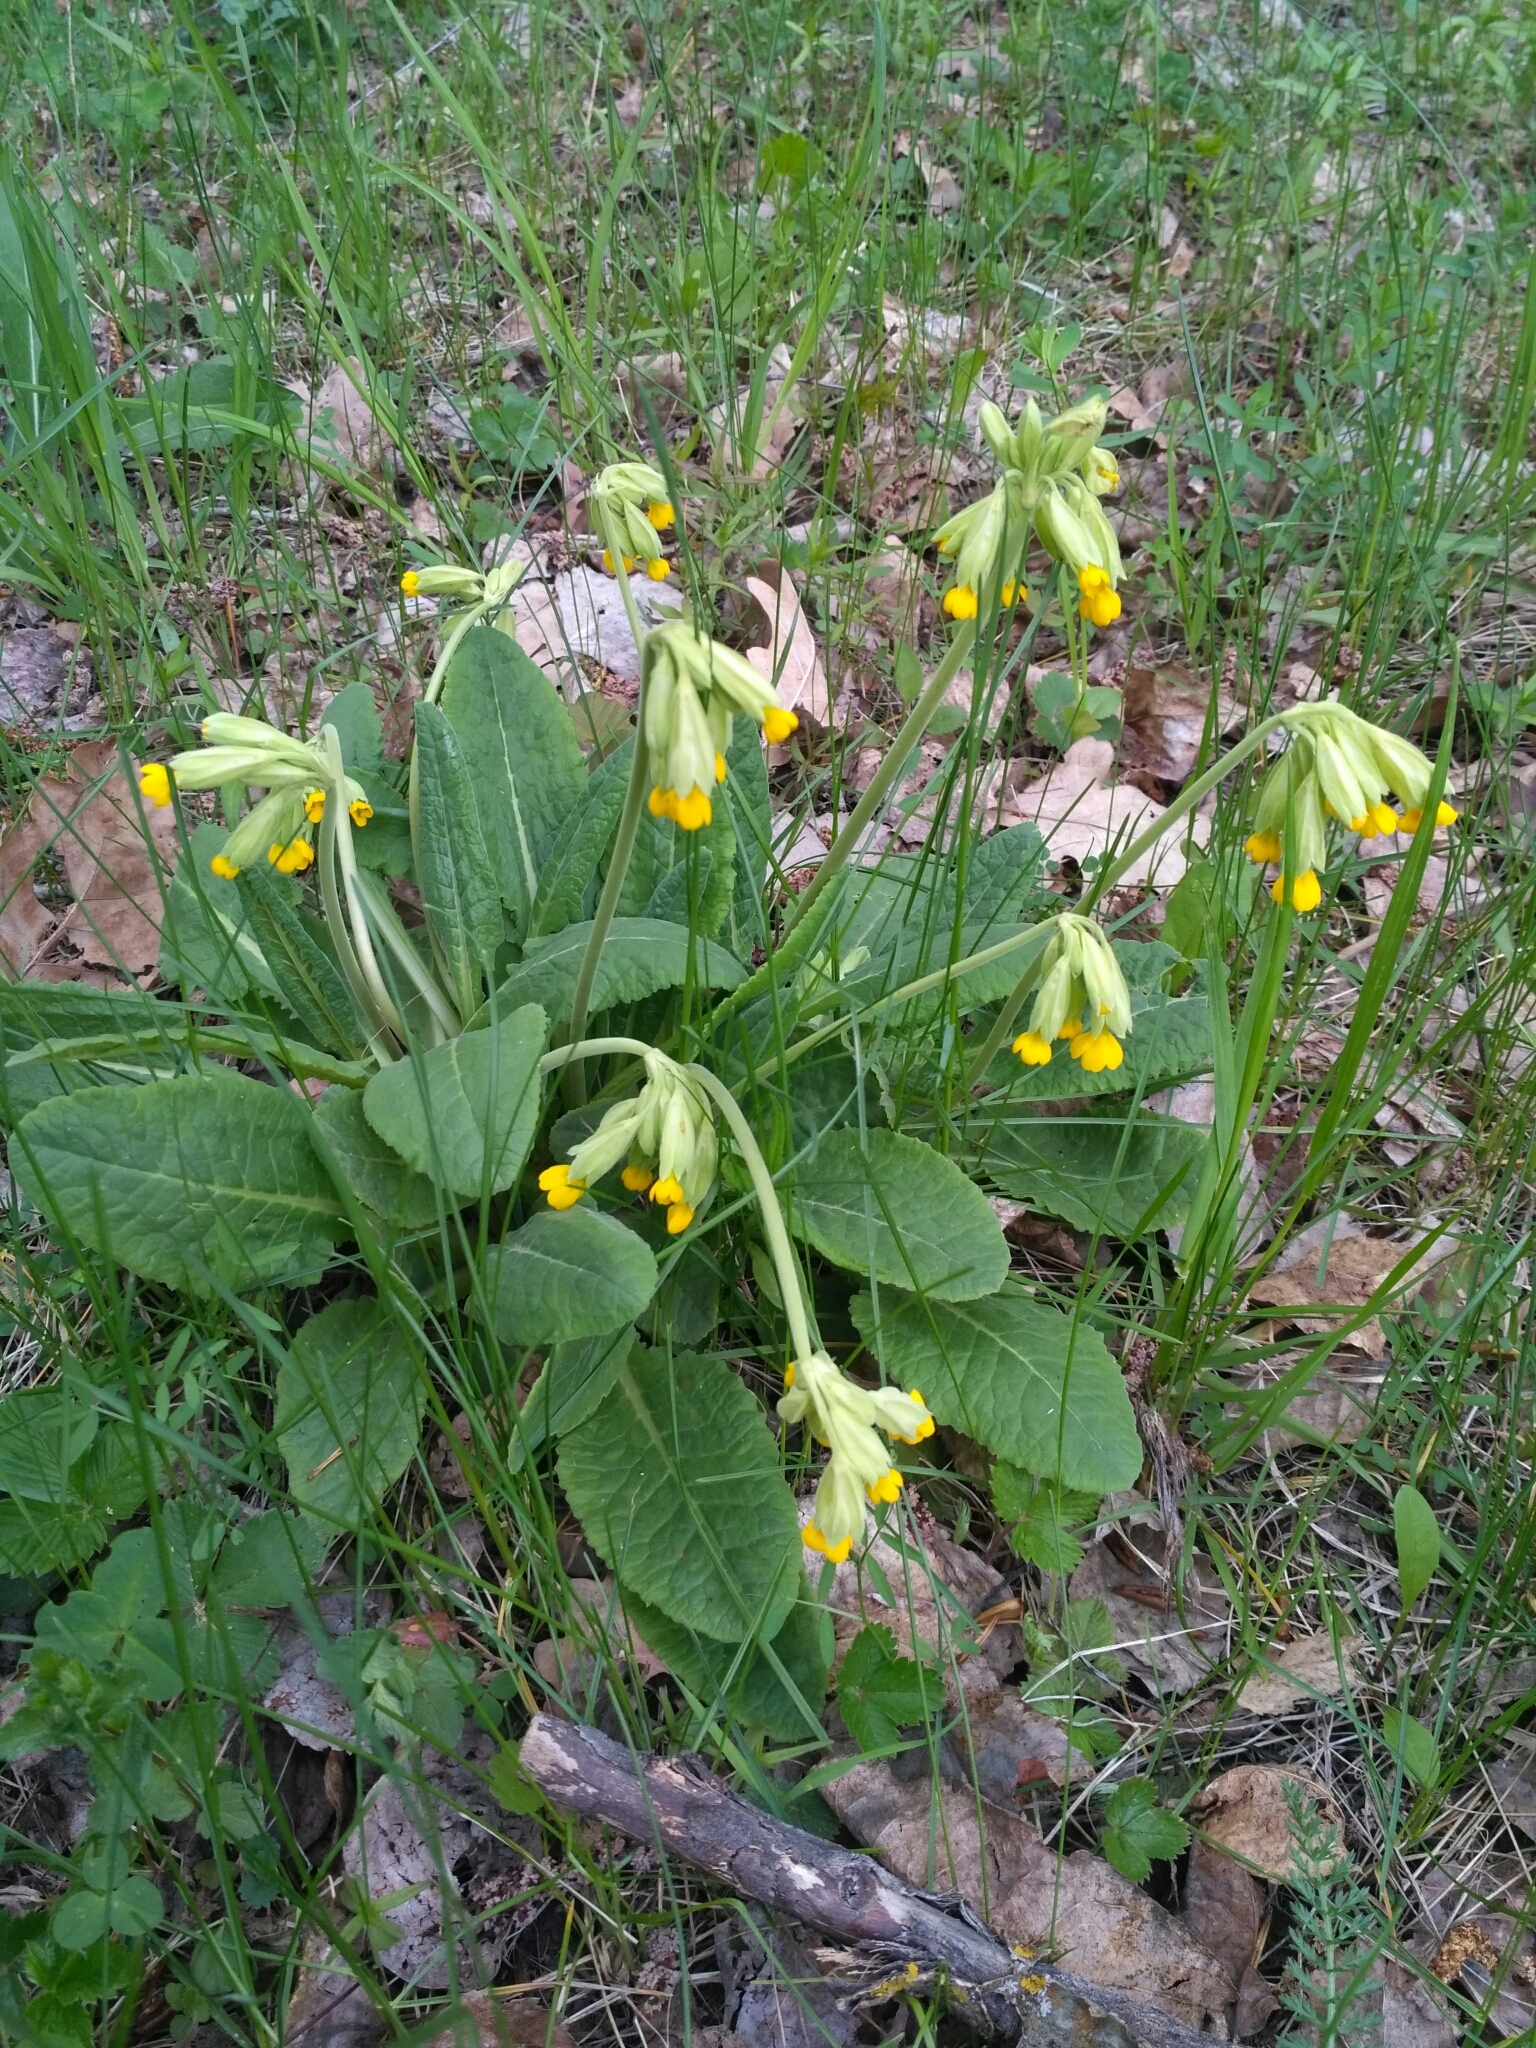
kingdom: Plantae
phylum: Tracheophyta
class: Magnoliopsida
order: Ericales
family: Primulaceae
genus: Primula
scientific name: Primula veris
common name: Cowslip
